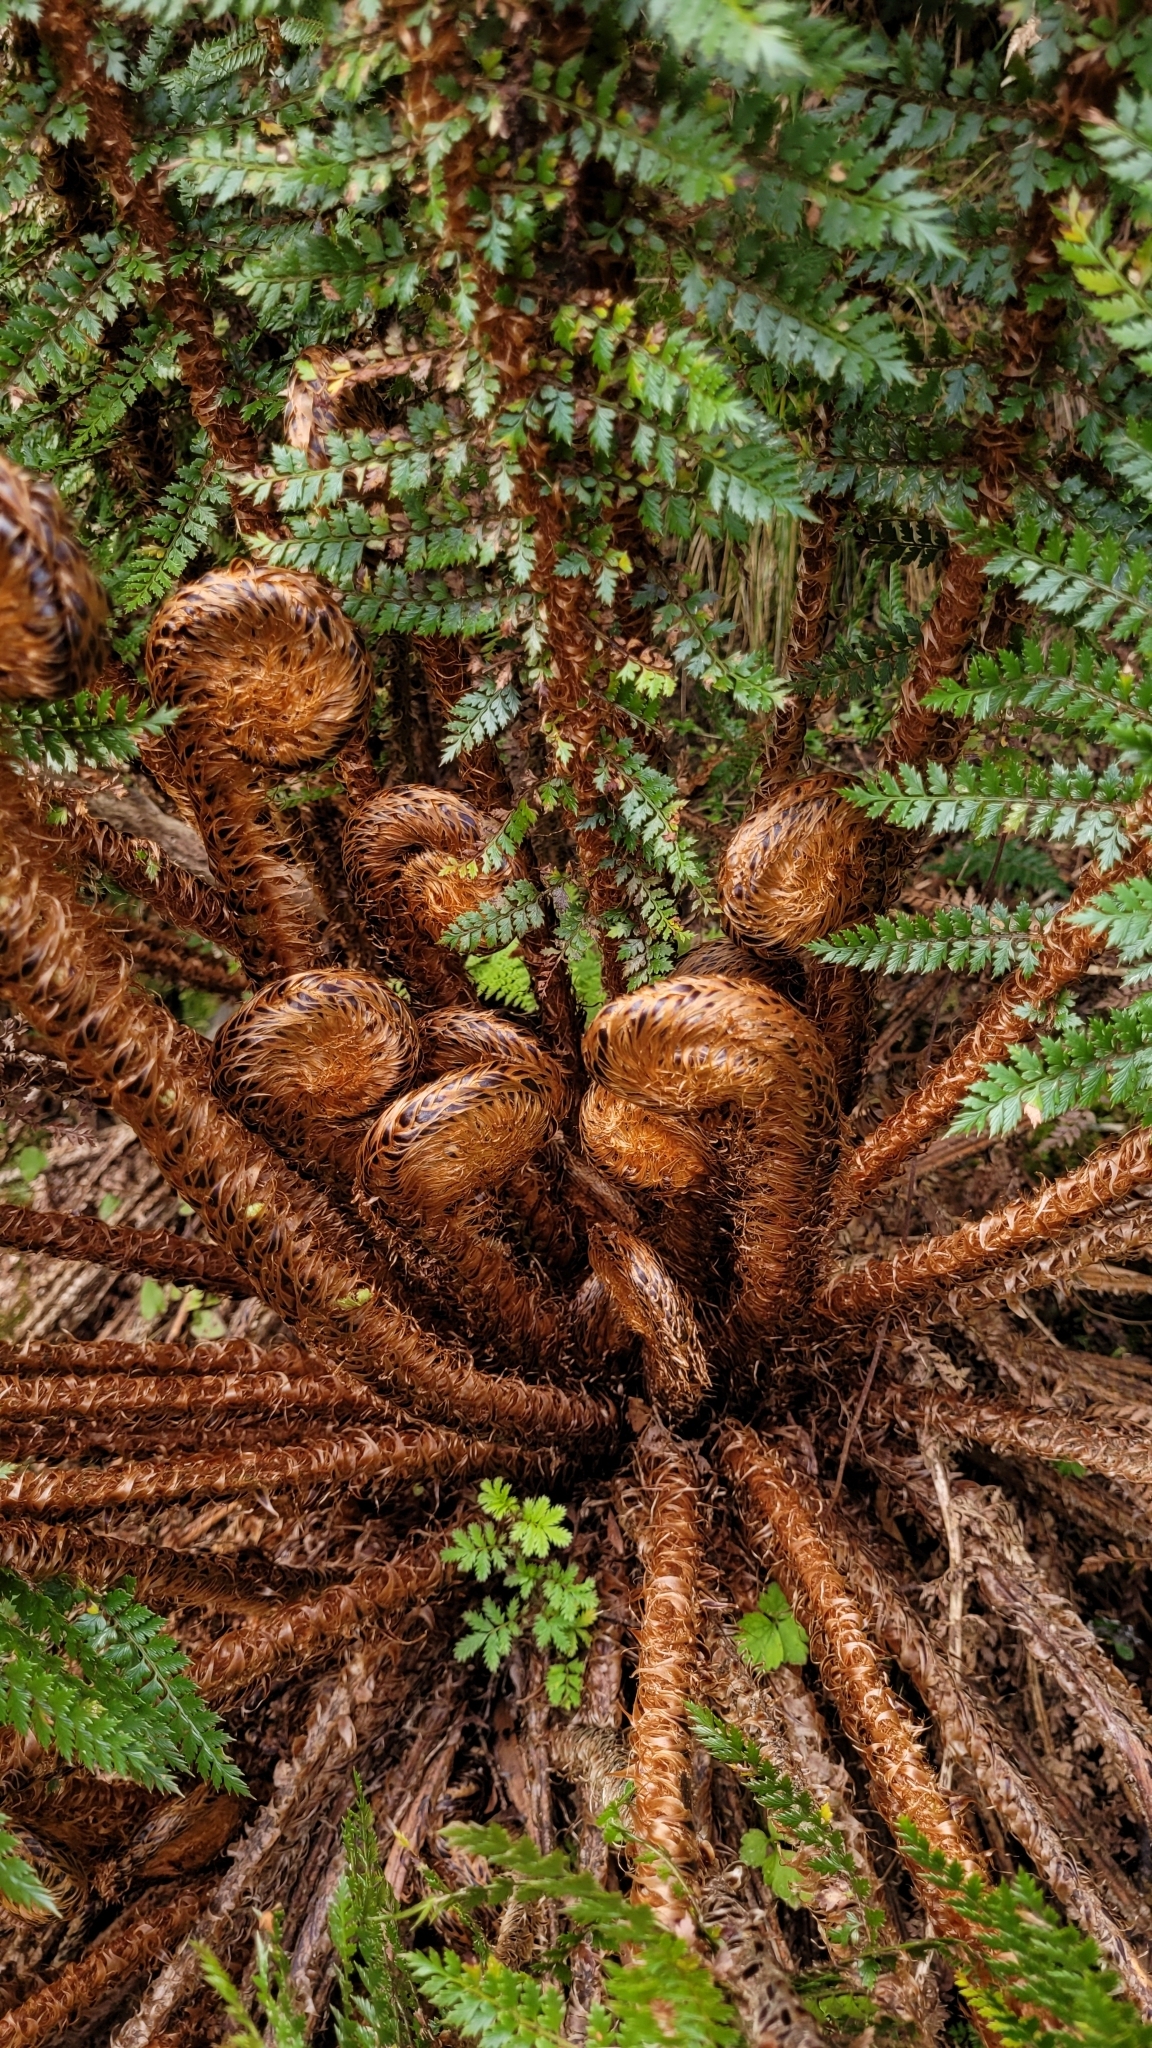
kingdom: Plantae
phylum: Tracheophyta
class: Polypodiopsida
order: Polypodiales
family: Dryopteridaceae
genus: Polystichum
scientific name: Polystichum vestitum
